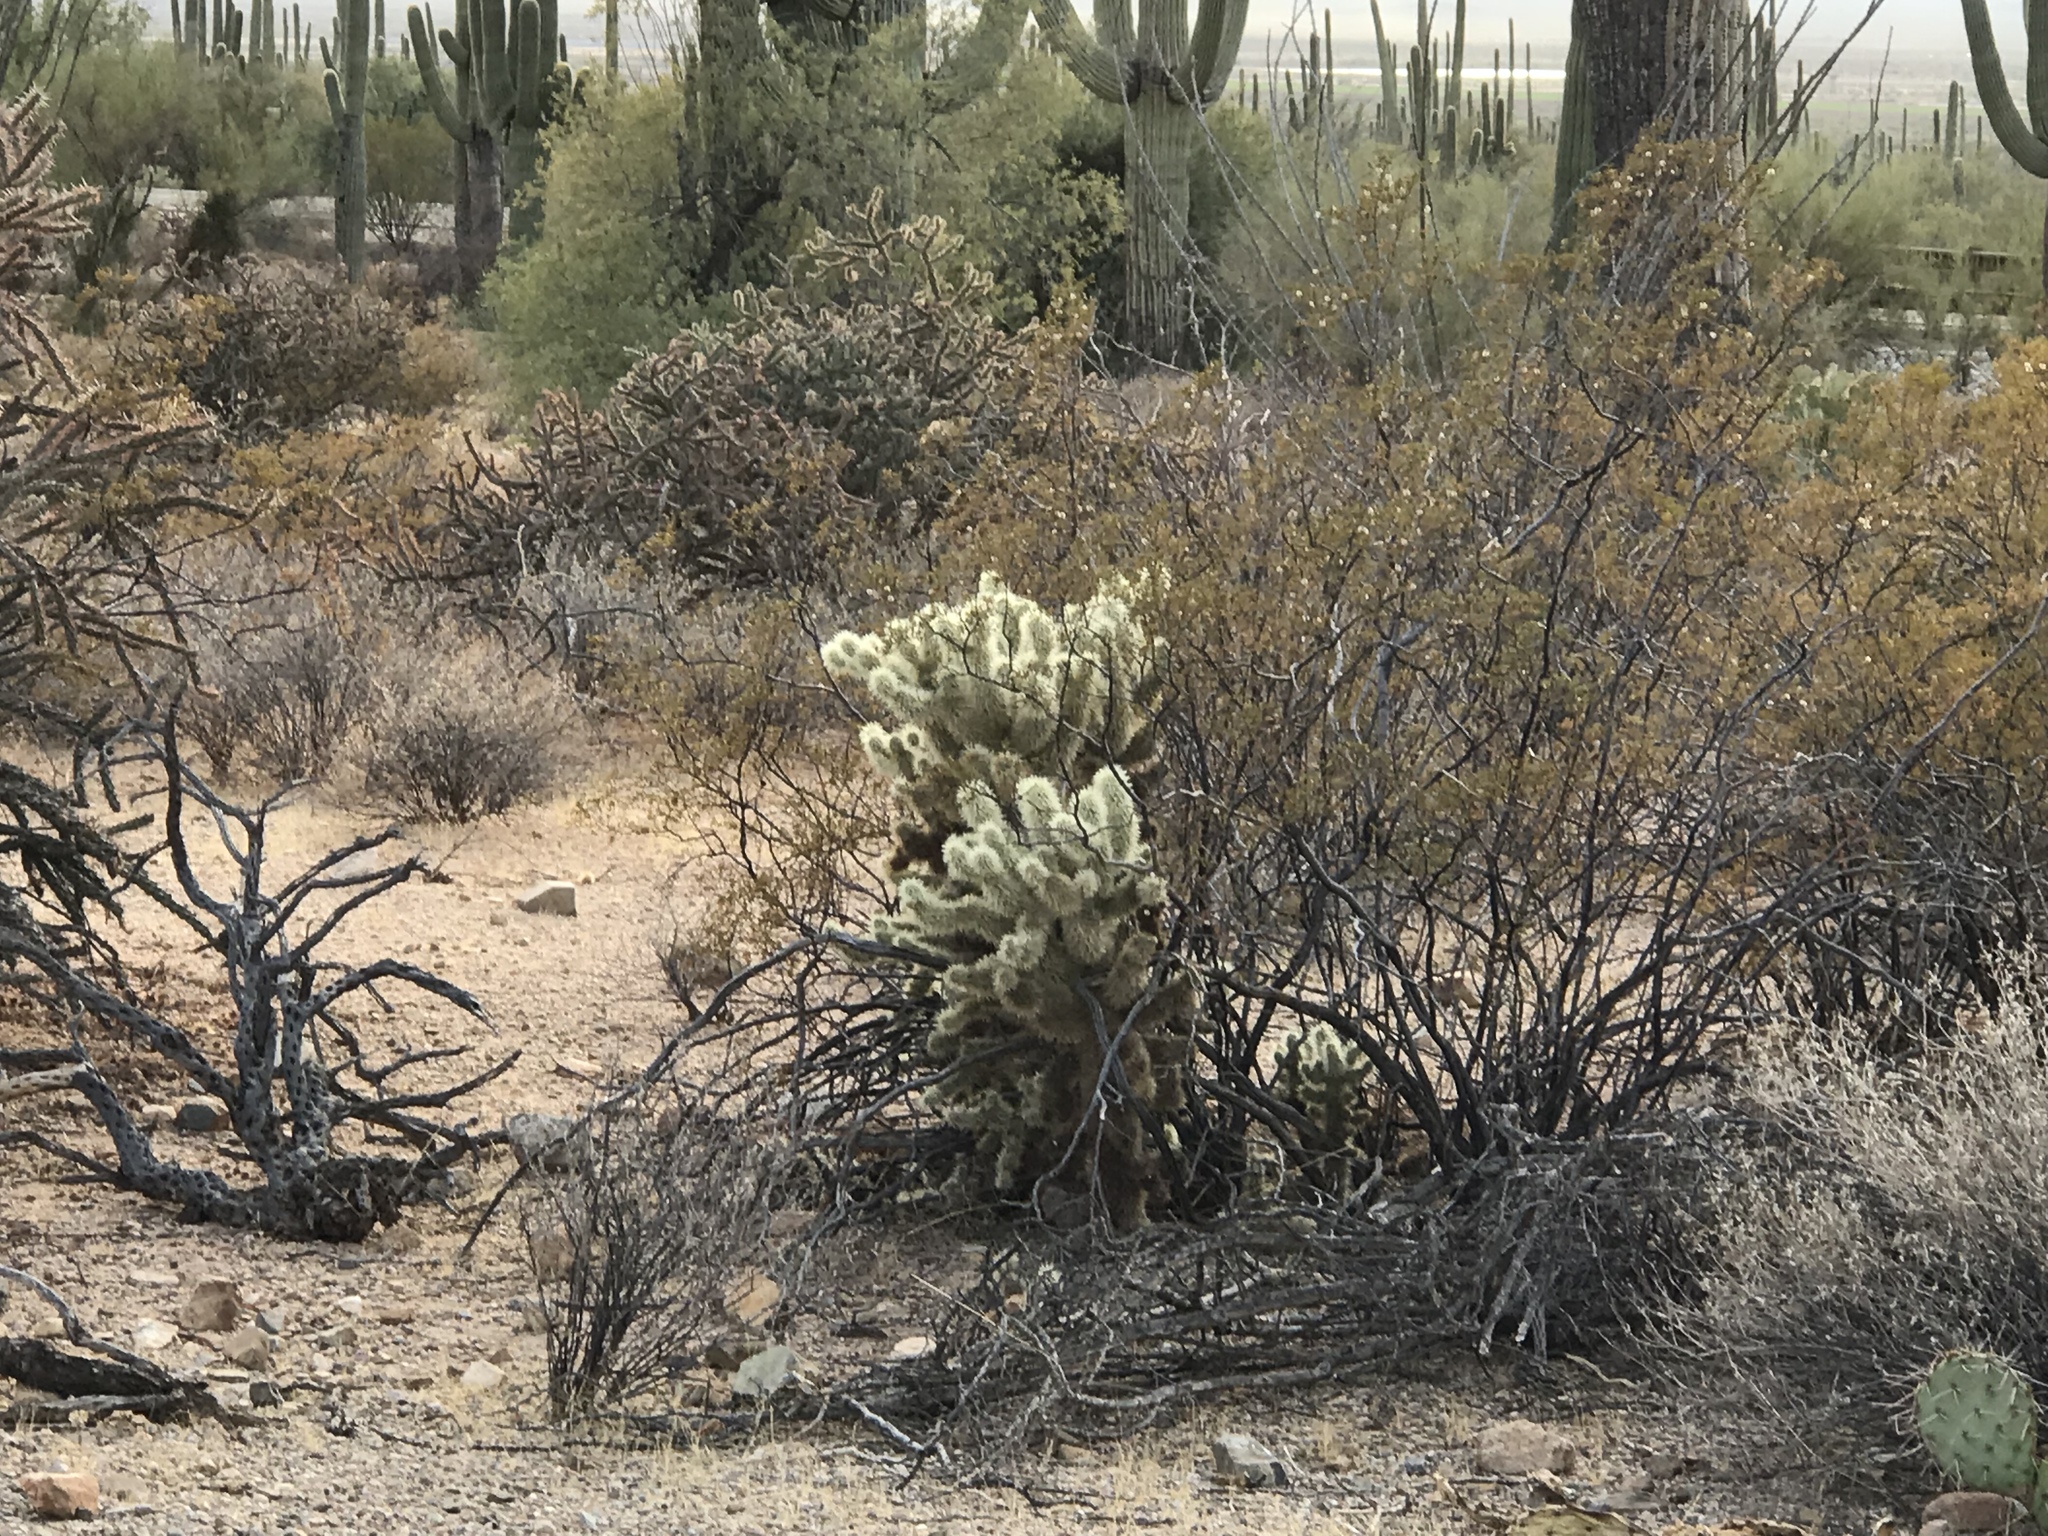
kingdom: Plantae
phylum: Tracheophyta
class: Magnoliopsida
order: Zygophyllales
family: Zygophyllaceae
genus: Larrea
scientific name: Larrea tridentata
